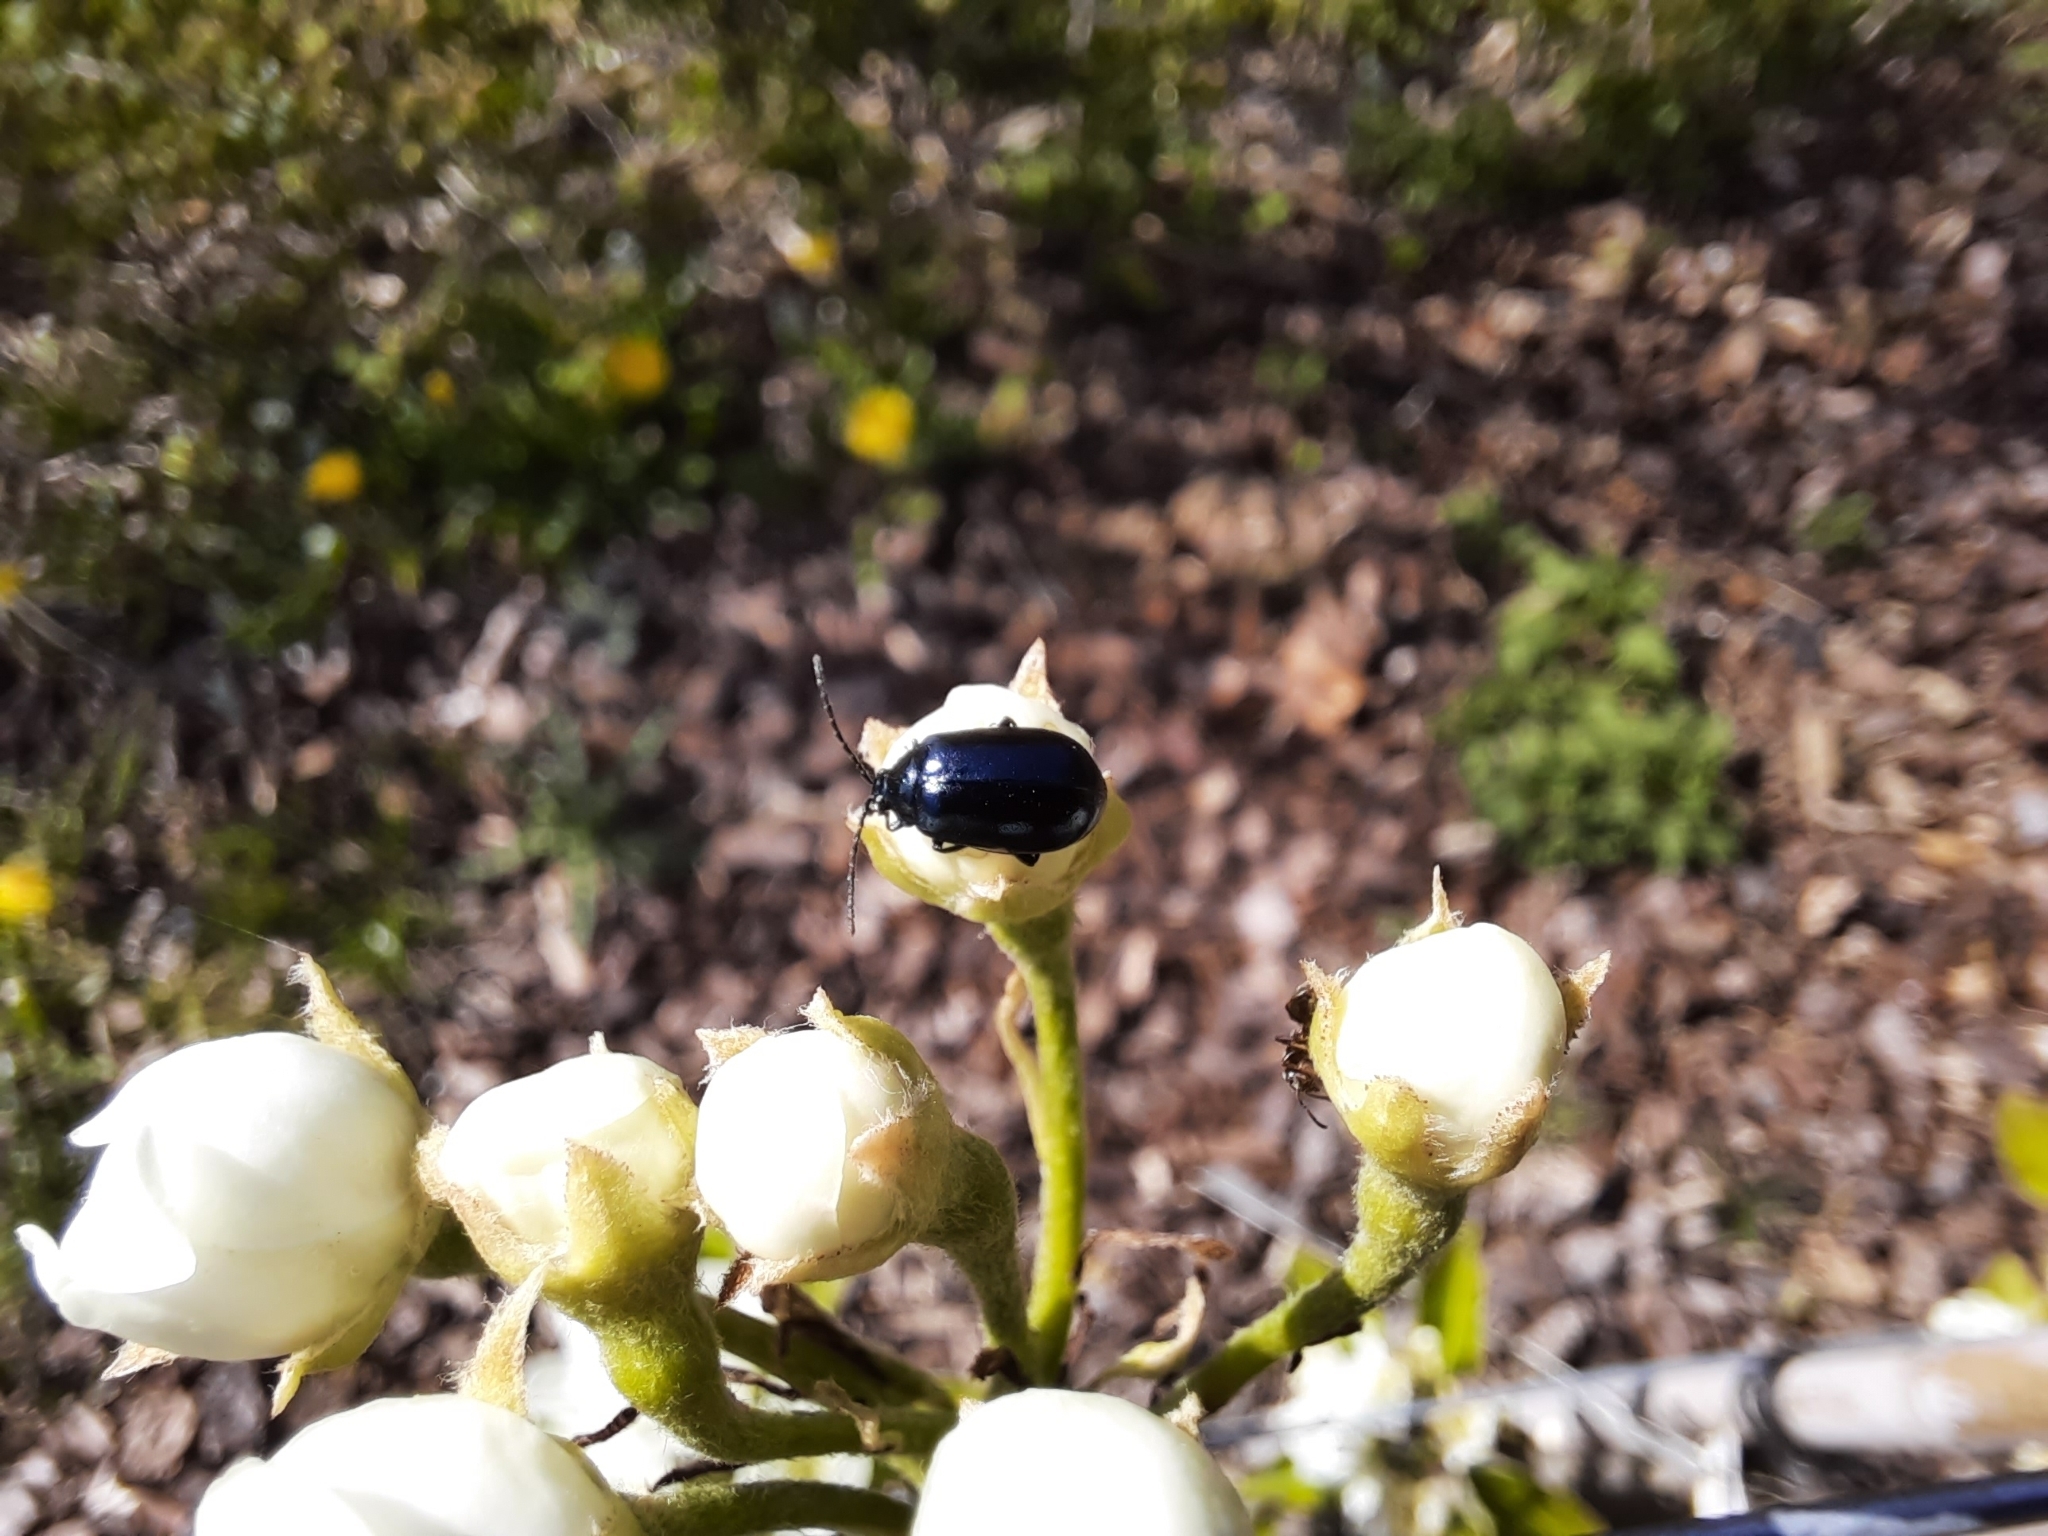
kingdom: Animalia
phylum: Arthropoda
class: Insecta
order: Coleoptera
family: Chrysomelidae
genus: Agelastica
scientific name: Agelastica alni
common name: Alder leaf beetle
